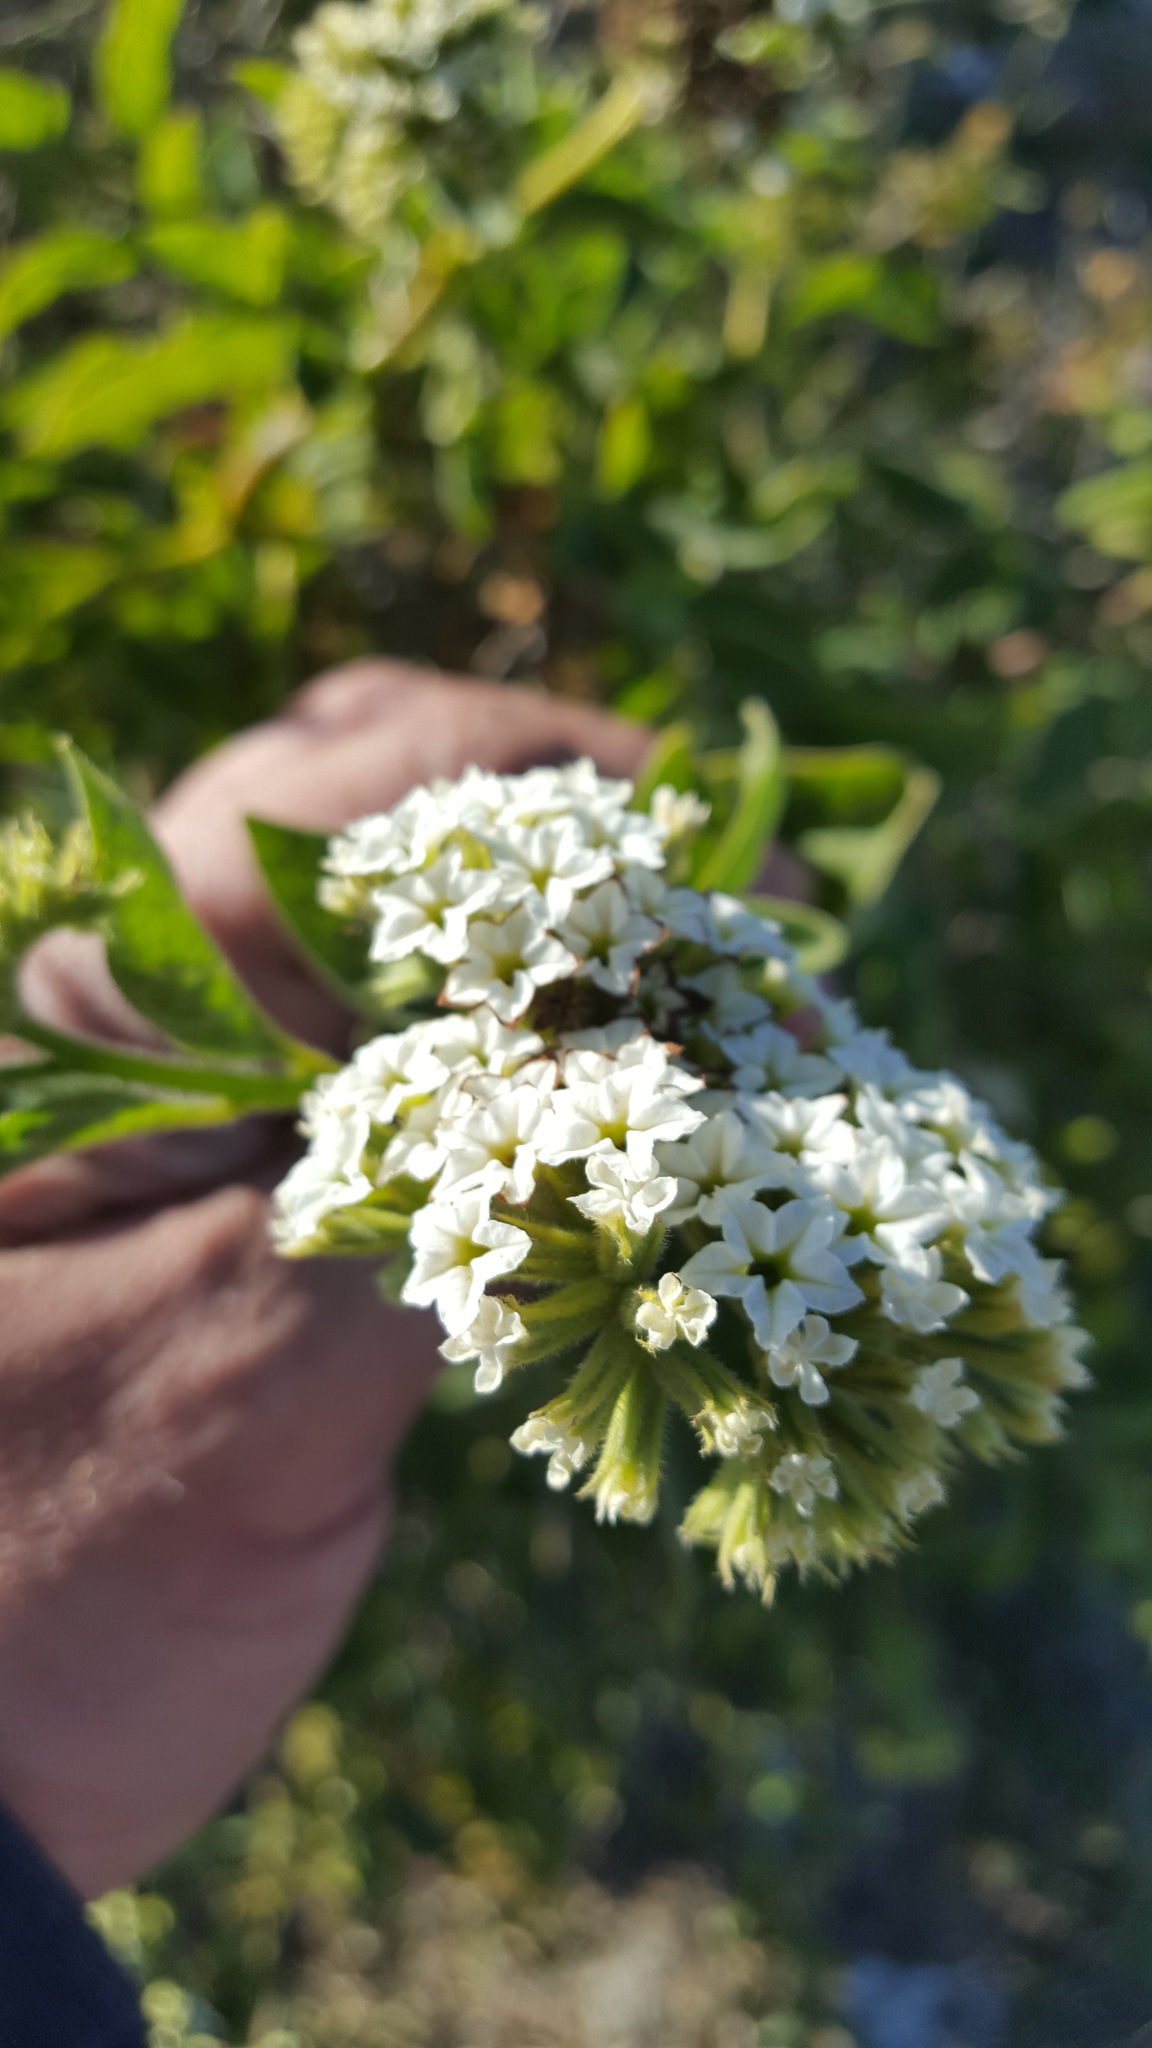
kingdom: Plantae
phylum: Tracheophyta
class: Magnoliopsida
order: Boraginales
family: Heliotropiaceae
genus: Tournefortia
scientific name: Tournefortia mutabilis
